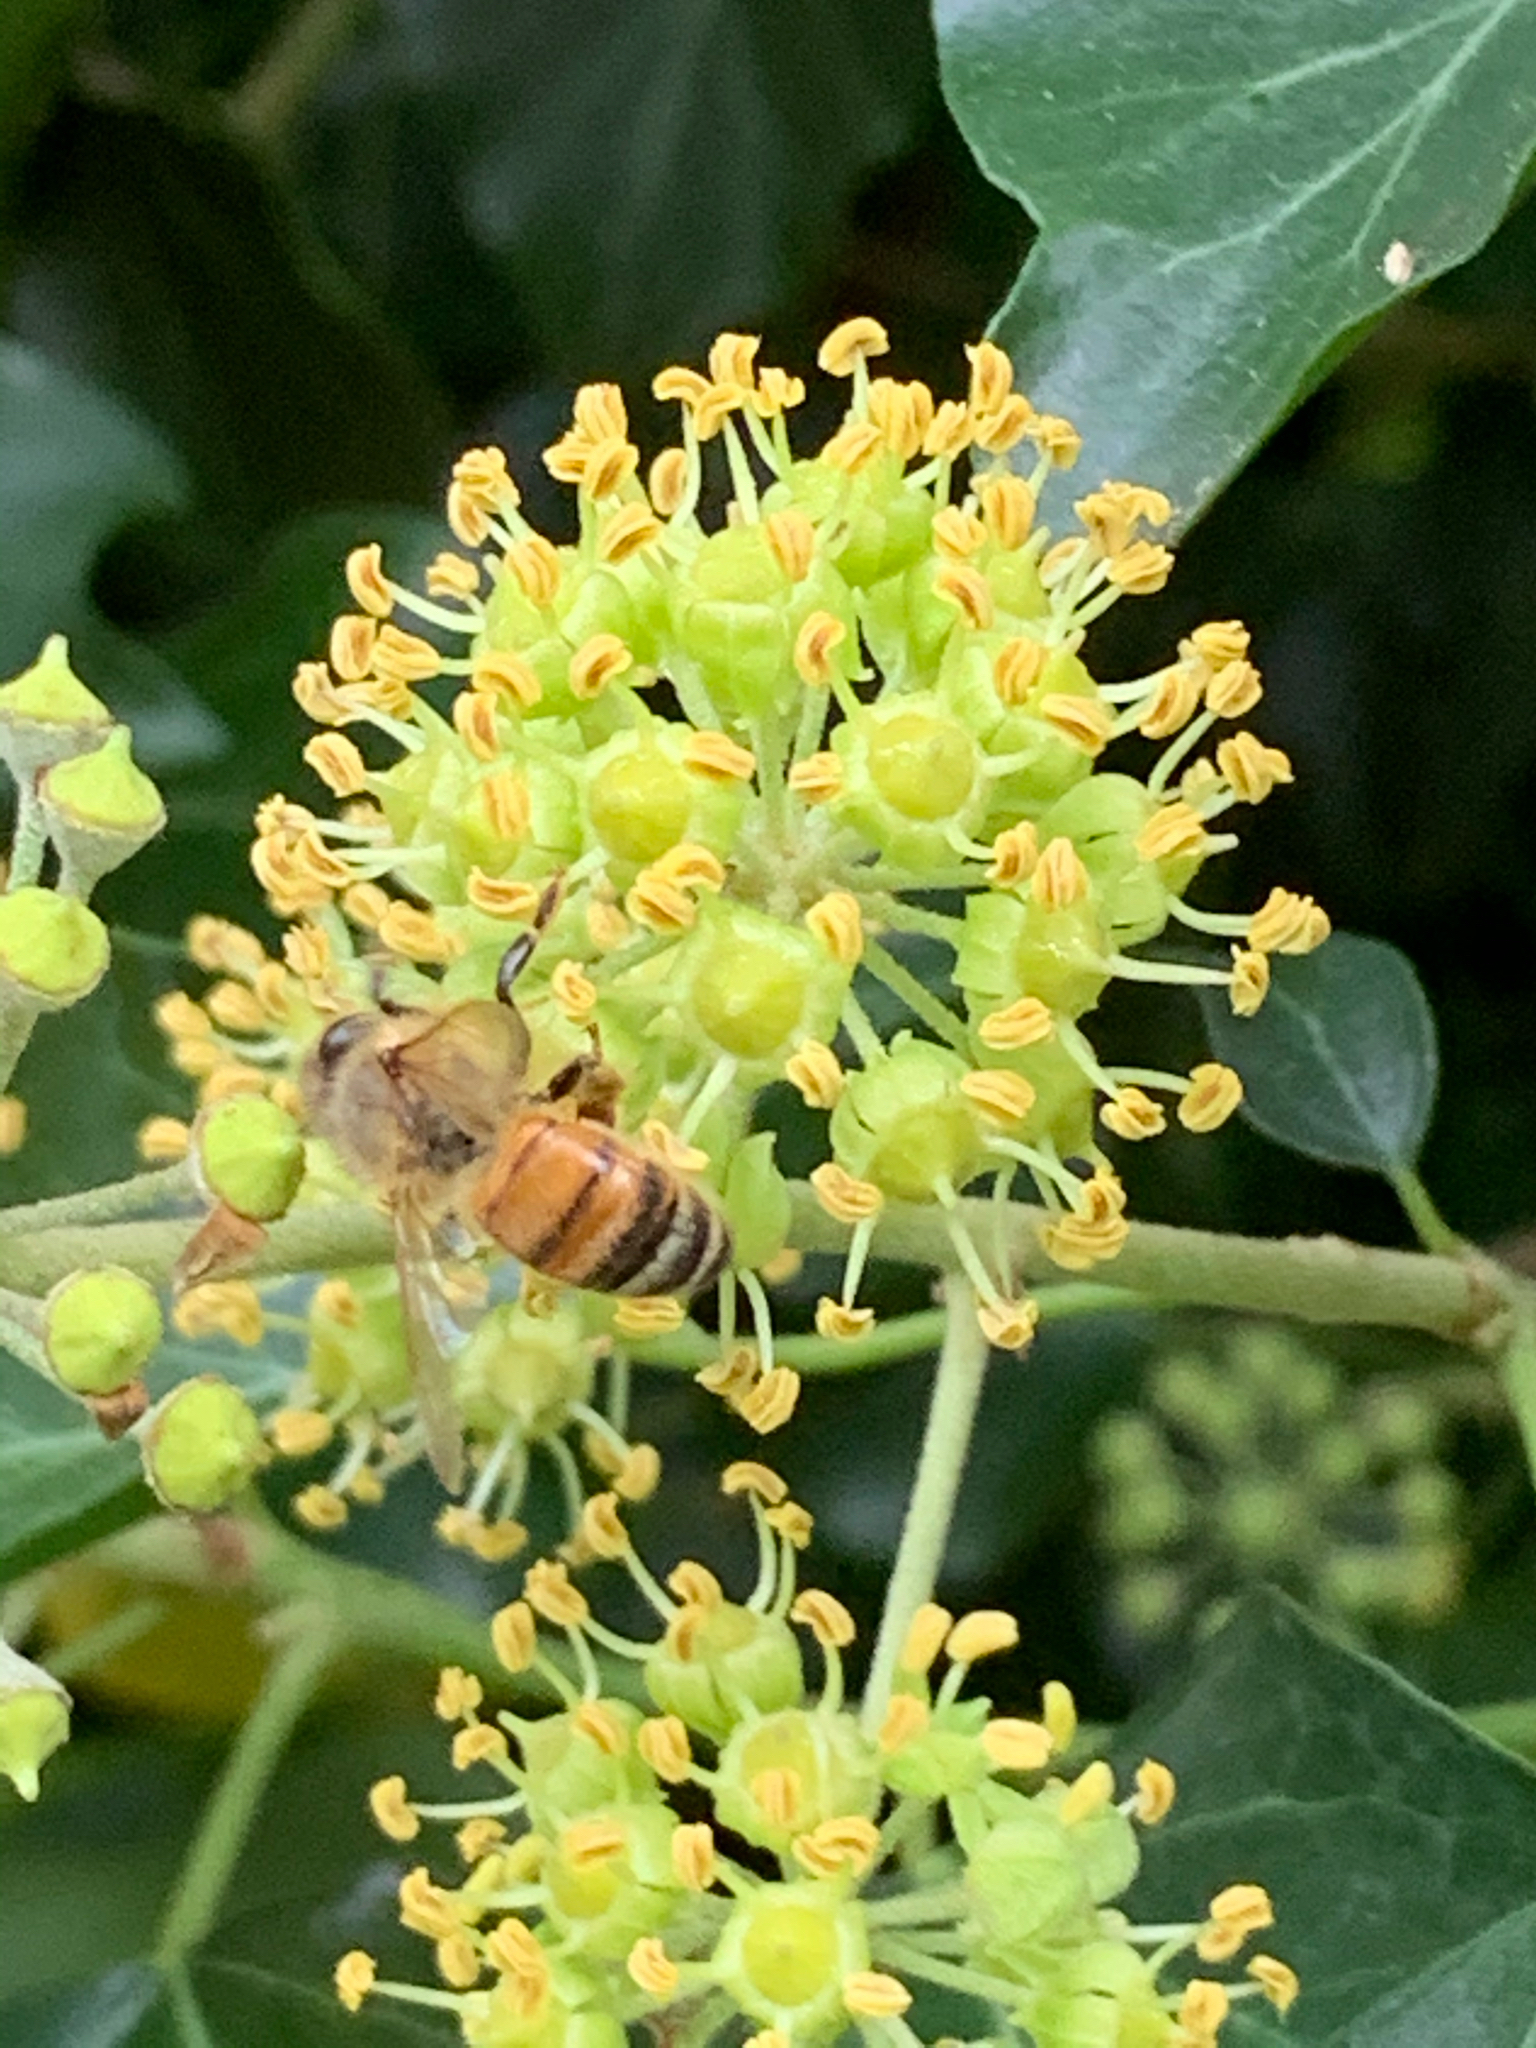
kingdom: Animalia
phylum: Arthropoda
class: Insecta
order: Hymenoptera
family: Apidae
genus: Apis
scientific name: Apis mellifera
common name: Honey bee
